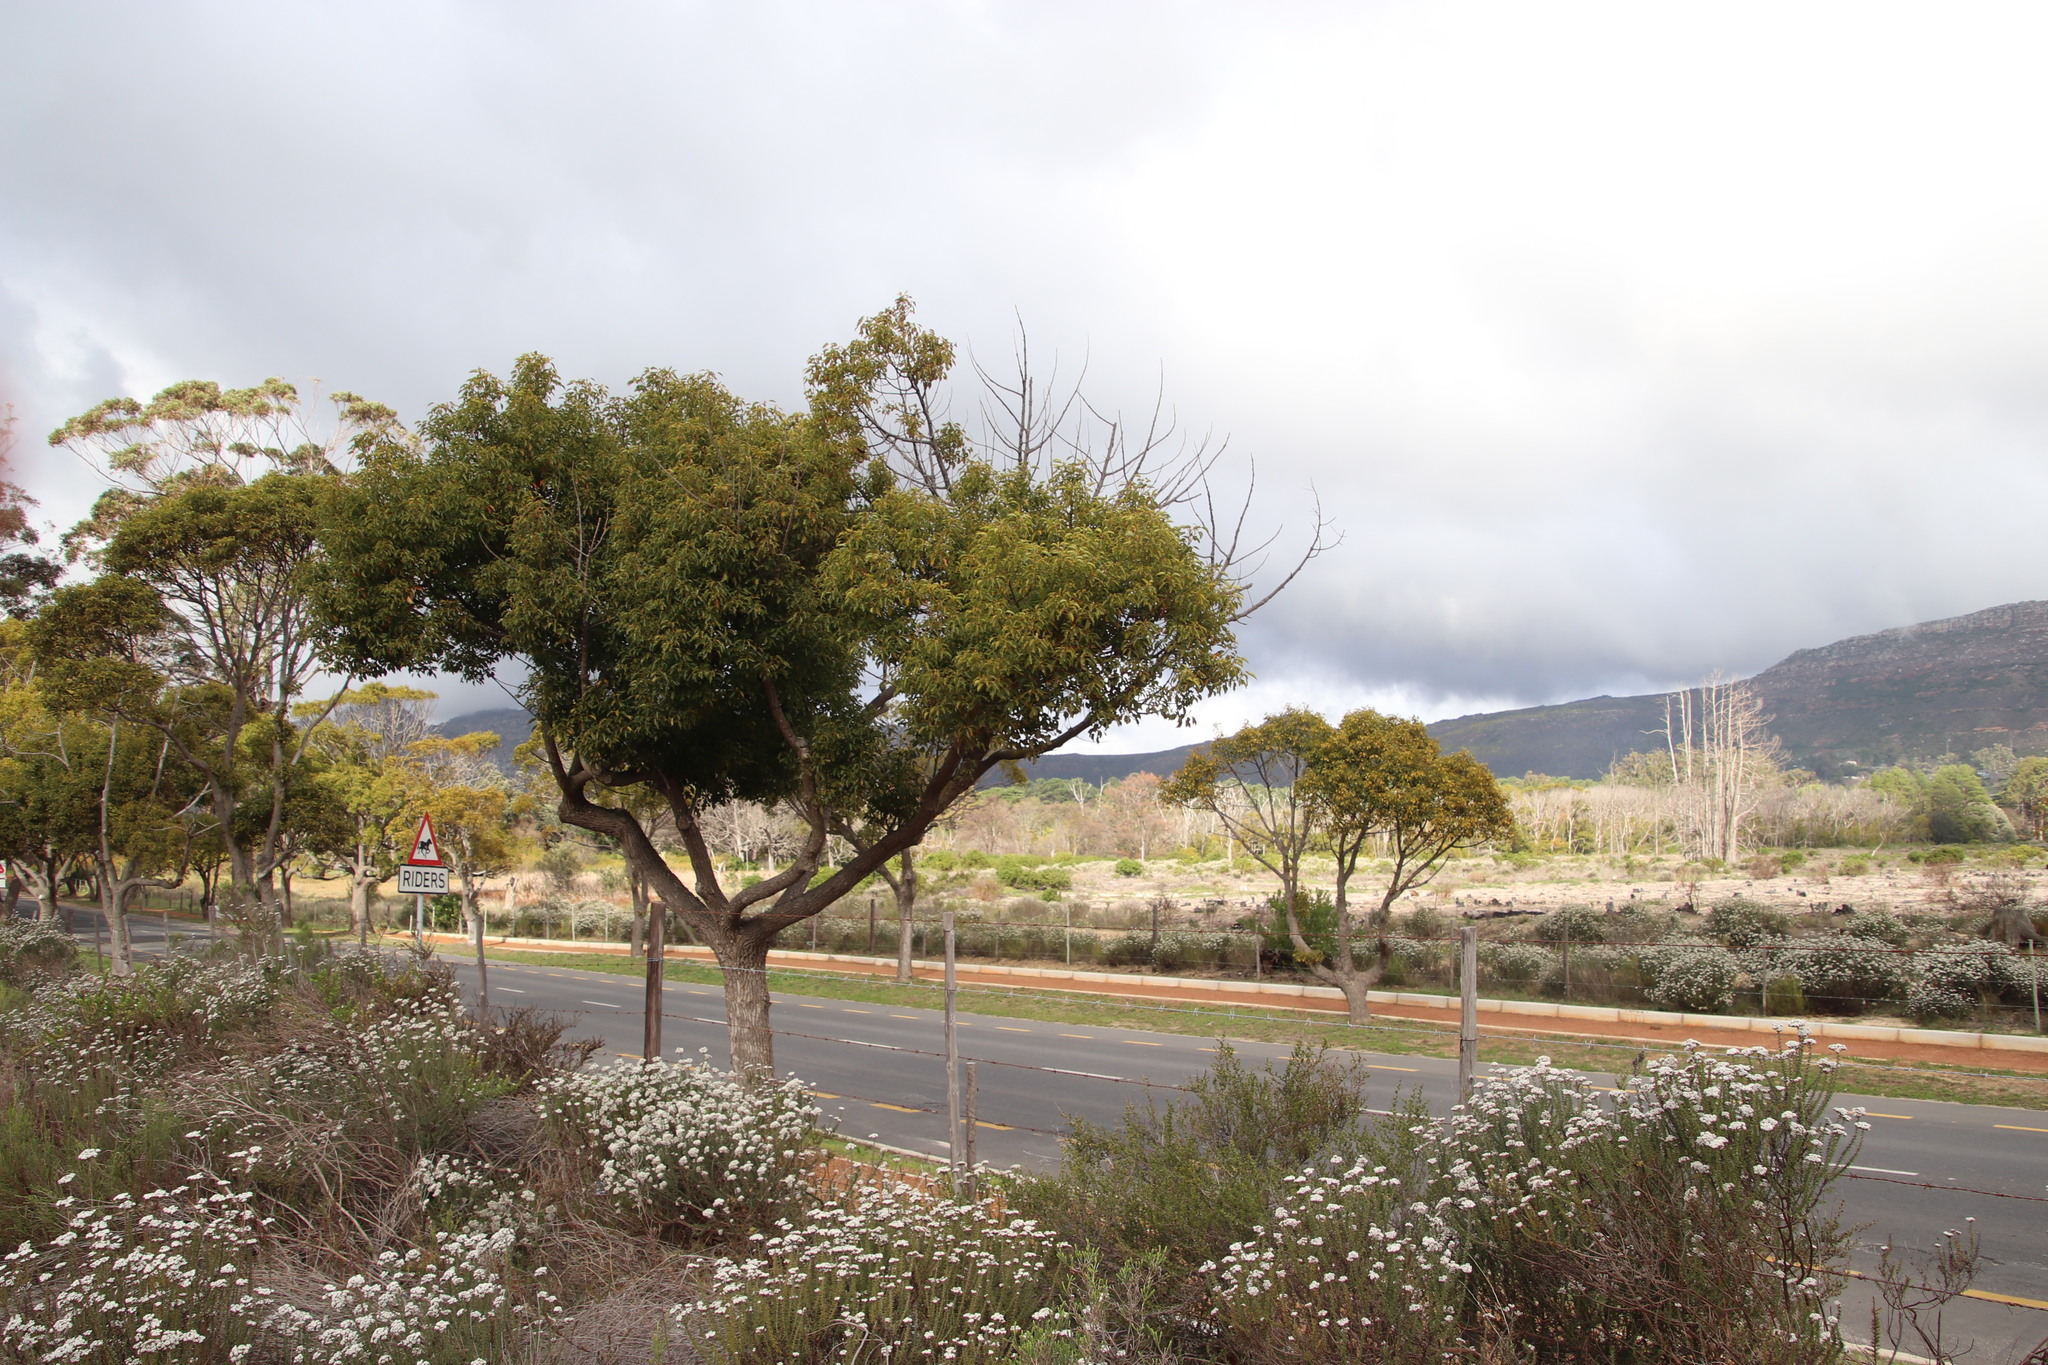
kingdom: Plantae
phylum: Tracheophyta
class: Magnoliopsida
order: Laurales
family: Lauraceae
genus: Cinnamomum
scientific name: Cinnamomum camphora
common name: Camphortree
